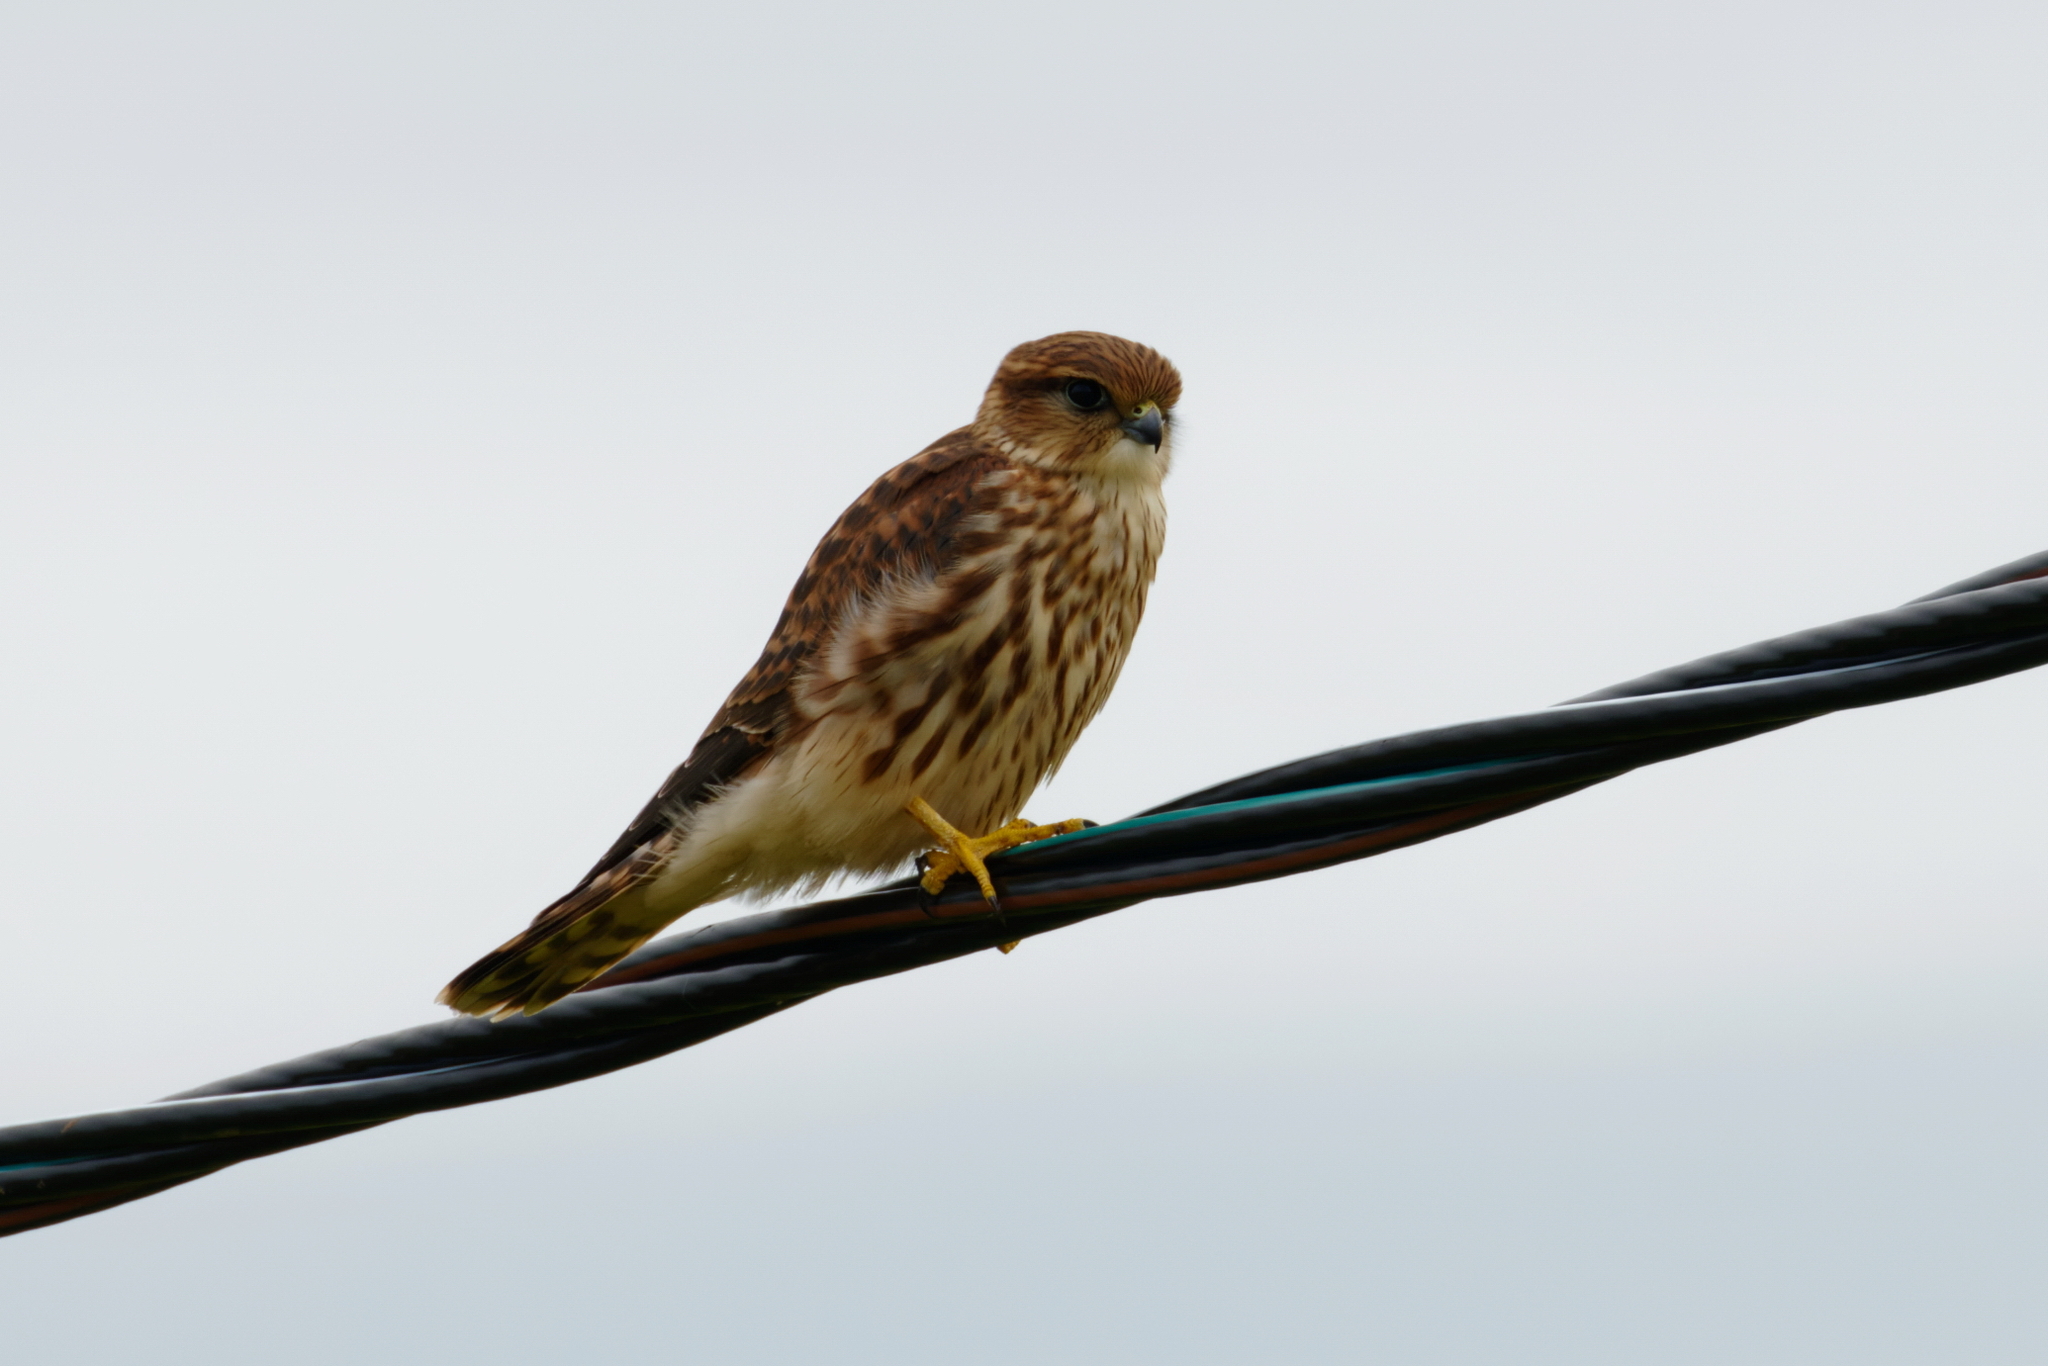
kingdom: Animalia
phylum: Chordata
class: Aves
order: Falconiformes
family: Falconidae
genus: Falco
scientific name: Falco columbarius
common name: Merlin
